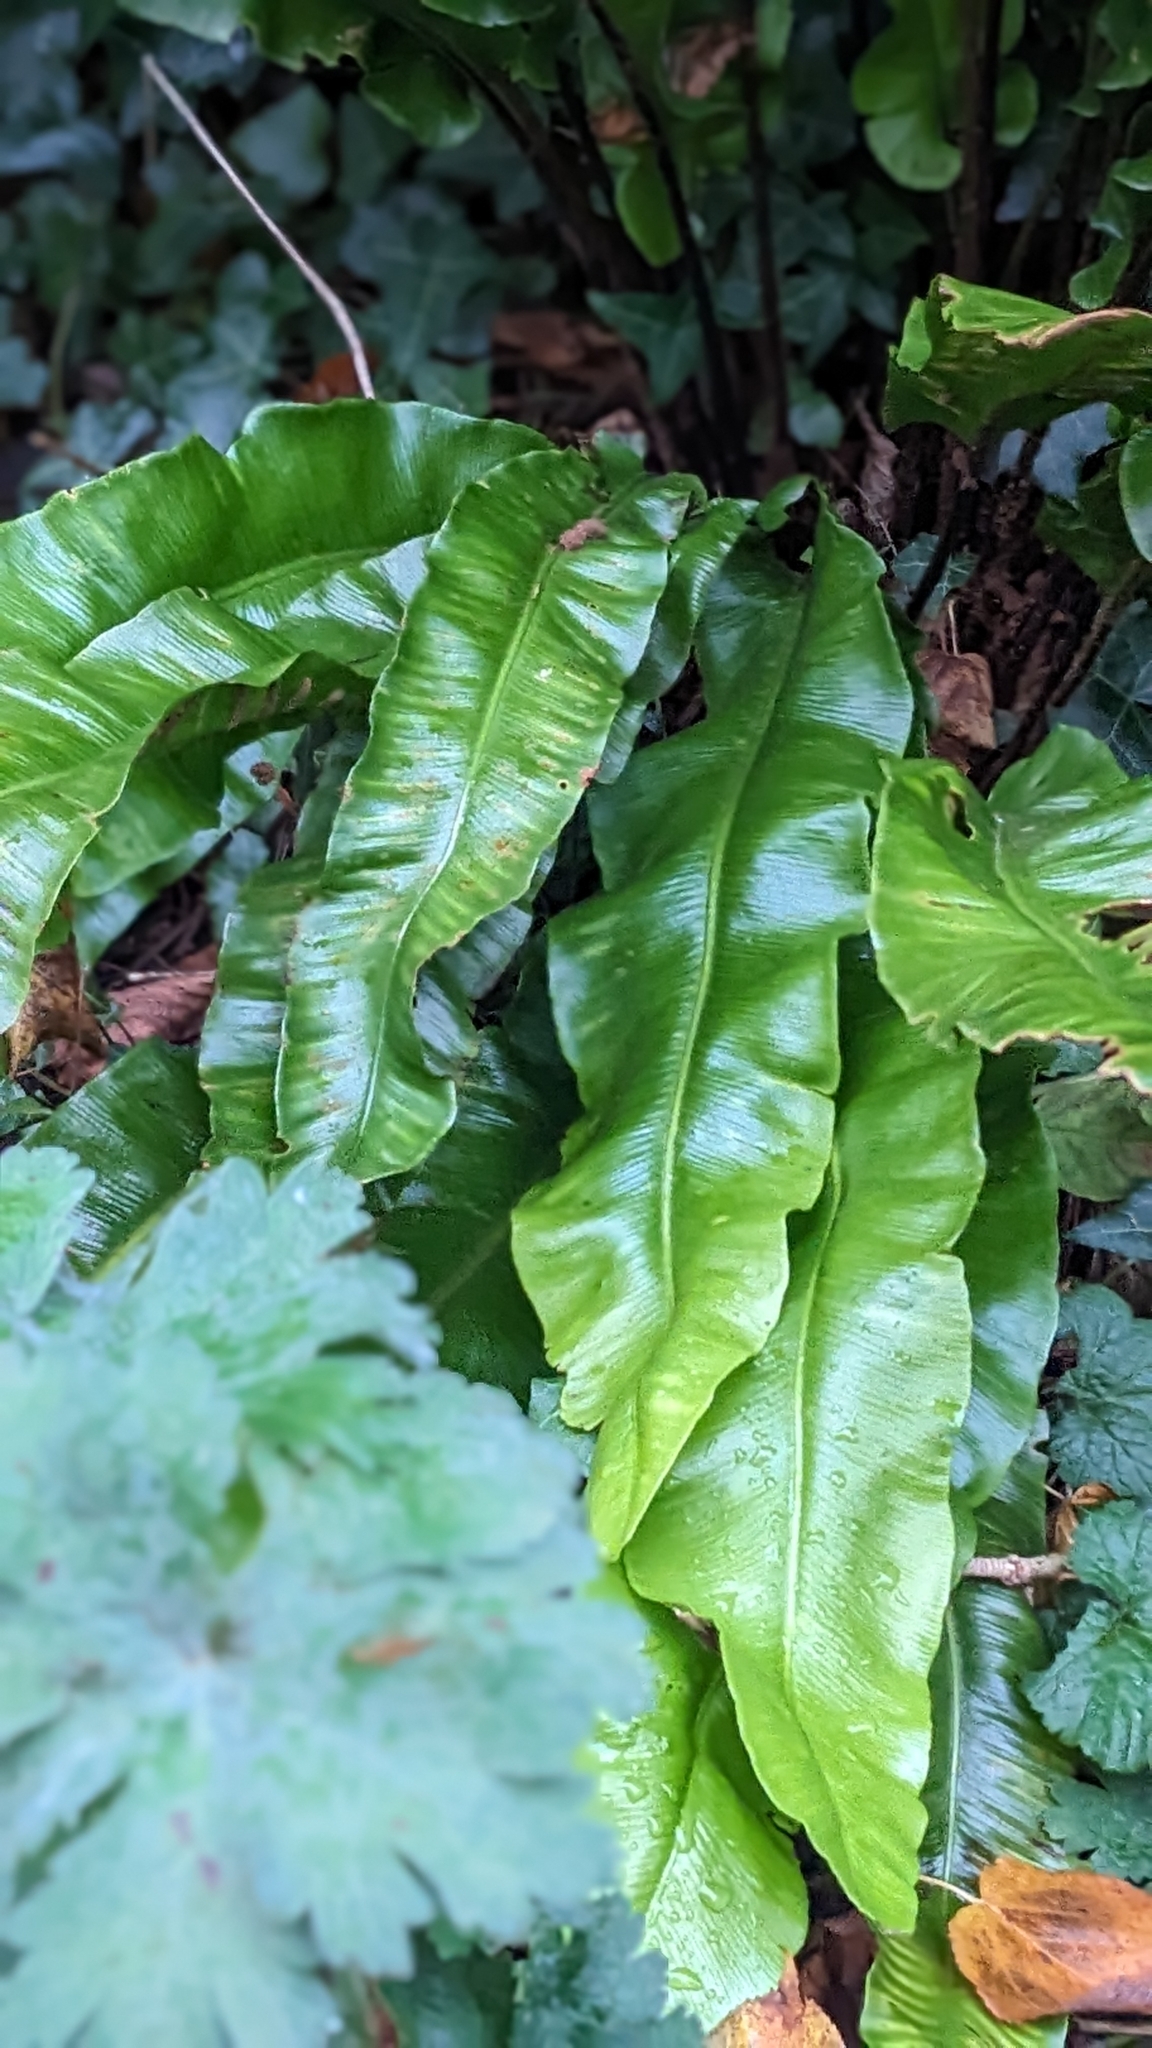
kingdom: Plantae
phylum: Tracheophyta
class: Polypodiopsida
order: Polypodiales
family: Aspleniaceae
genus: Asplenium
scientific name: Asplenium scolopendrium
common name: Hart's-tongue fern
